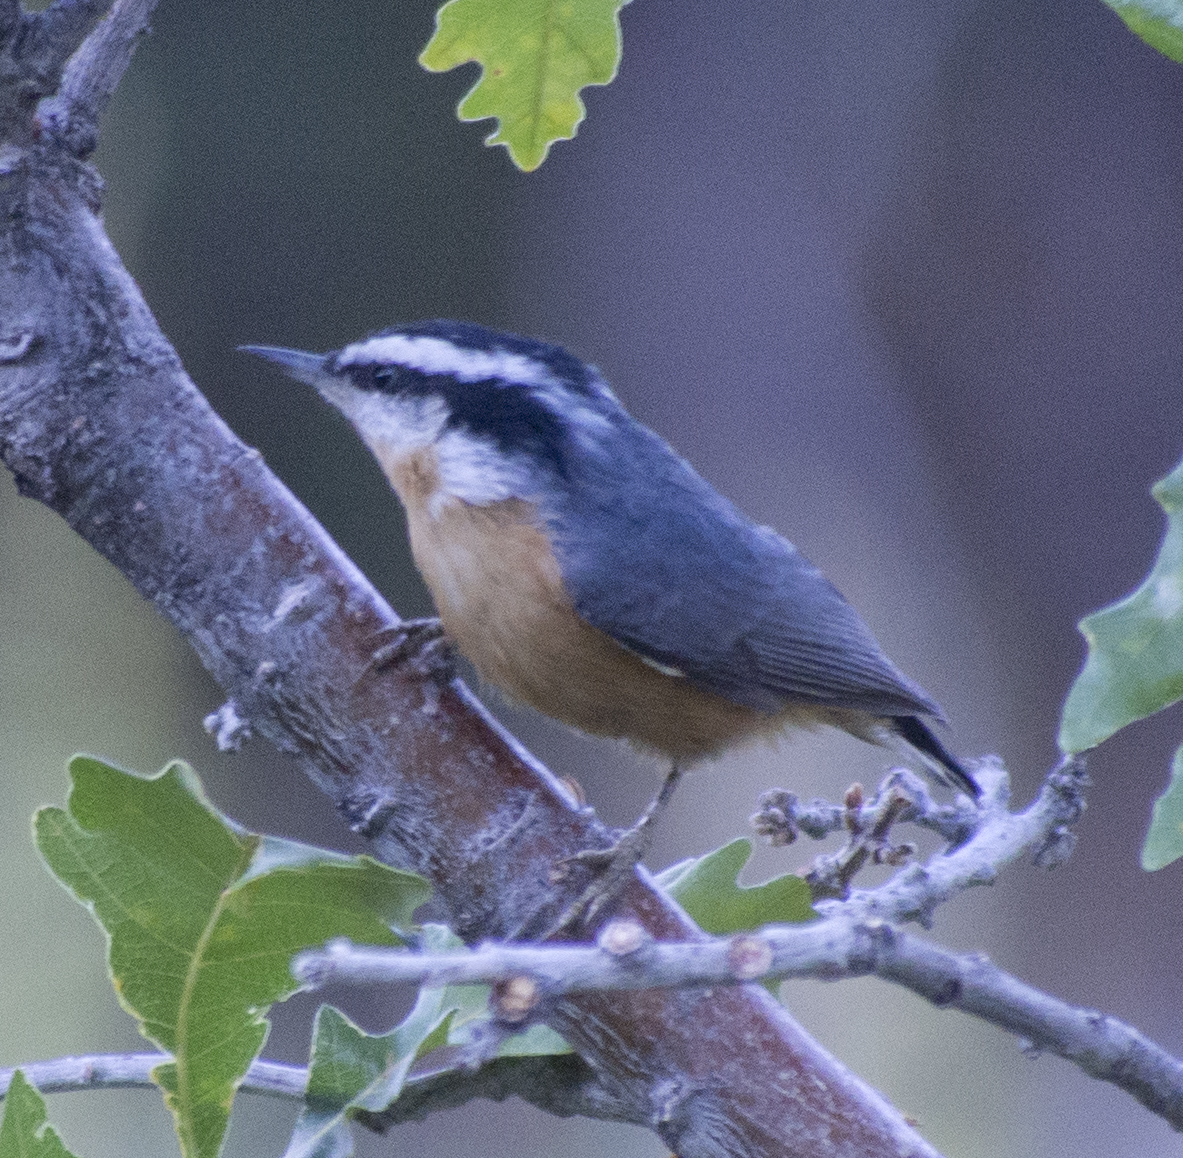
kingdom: Animalia
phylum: Chordata
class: Aves
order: Passeriformes
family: Sittidae
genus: Sitta
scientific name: Sitta canadensis
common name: Red-breasted nuthatch
